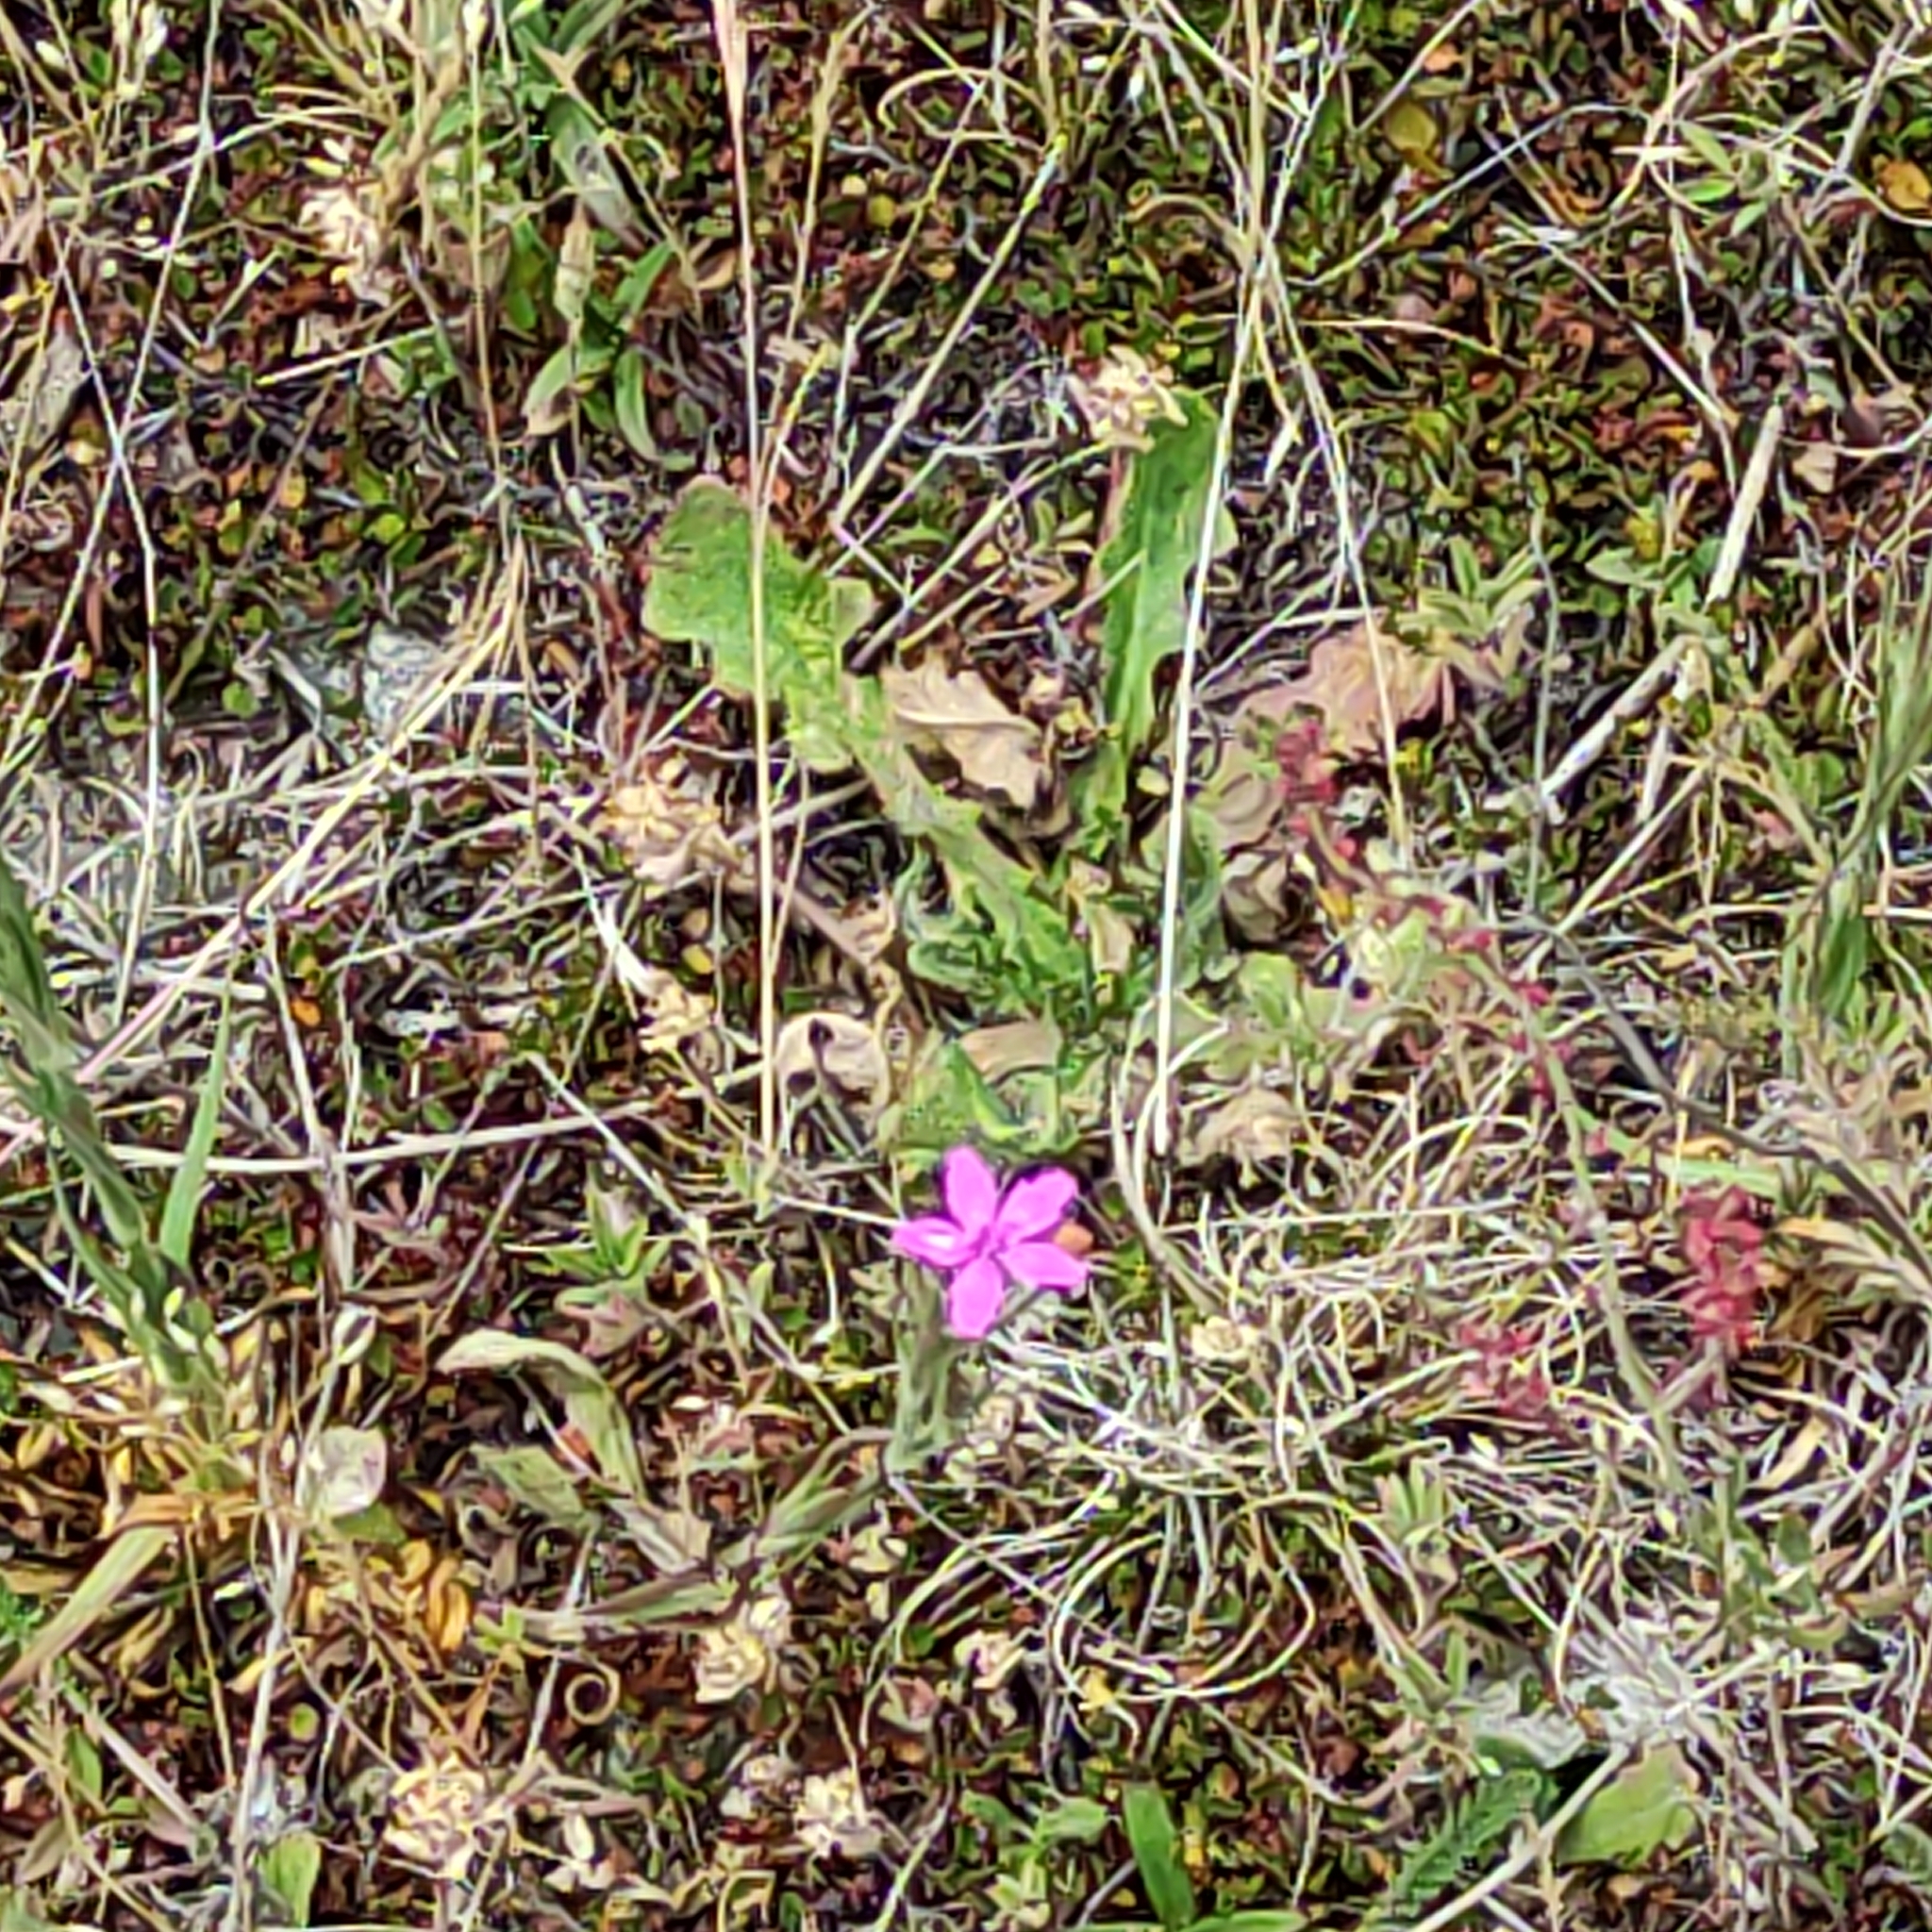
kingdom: Plantae
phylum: Tracheophyta
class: Magnoliopsida
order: Caryophyllales
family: Caryophyllaceae
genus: Dianthus
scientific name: Dianthus armeria
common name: Deptford pink
